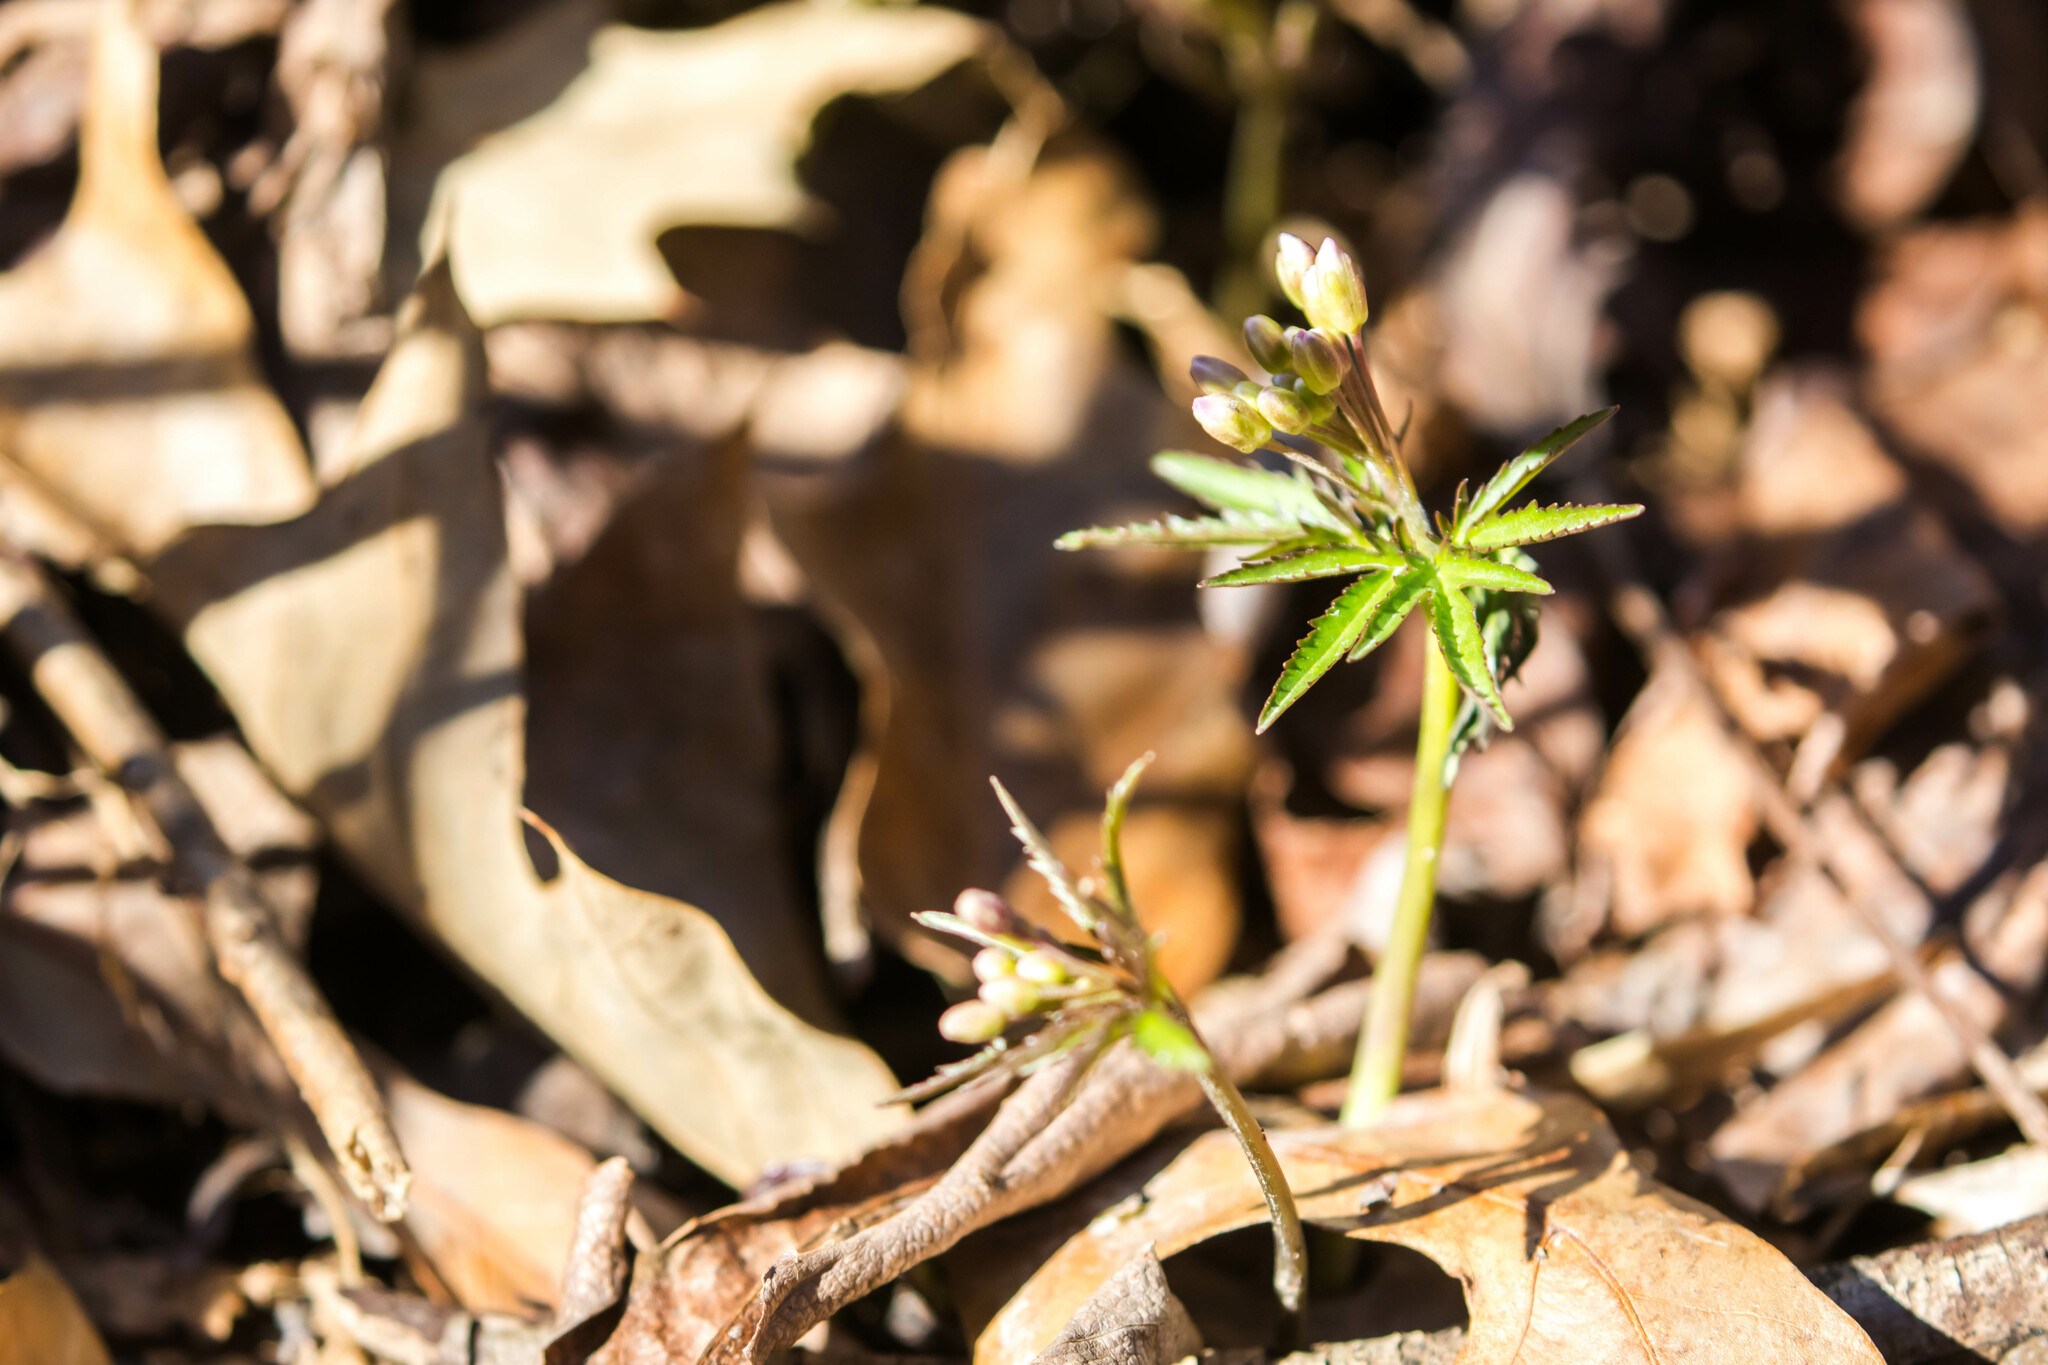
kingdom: Plantae
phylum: Tracheophyta
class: Magnoliopsida
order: Brassicales
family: Brassicaceae
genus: Cardamine
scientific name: Cardamine concatenata
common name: Cut-leaf toothcup
